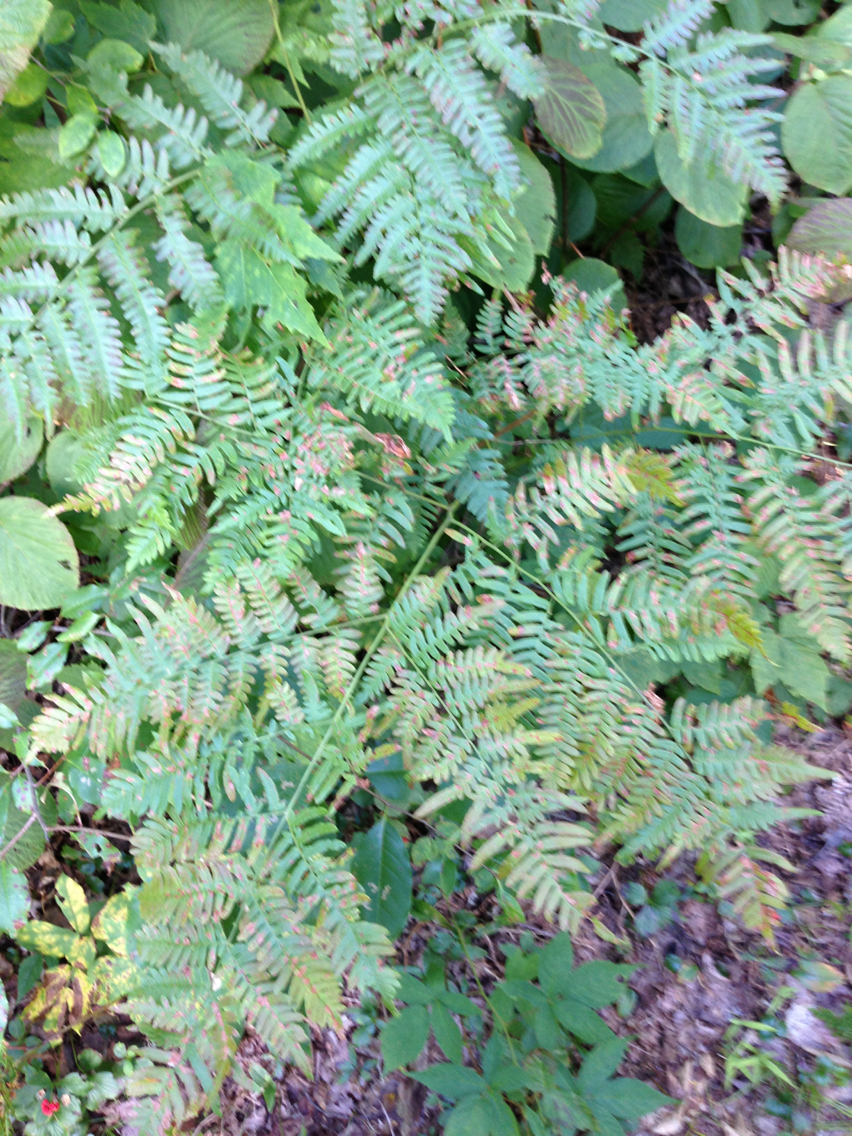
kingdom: Plantae
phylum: Tracheophyta
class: Polypodiopsida
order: Polypodiales
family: Dennstaedtiaceae
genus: Pteridium
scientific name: Pteridium aquilinum
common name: Bracken
